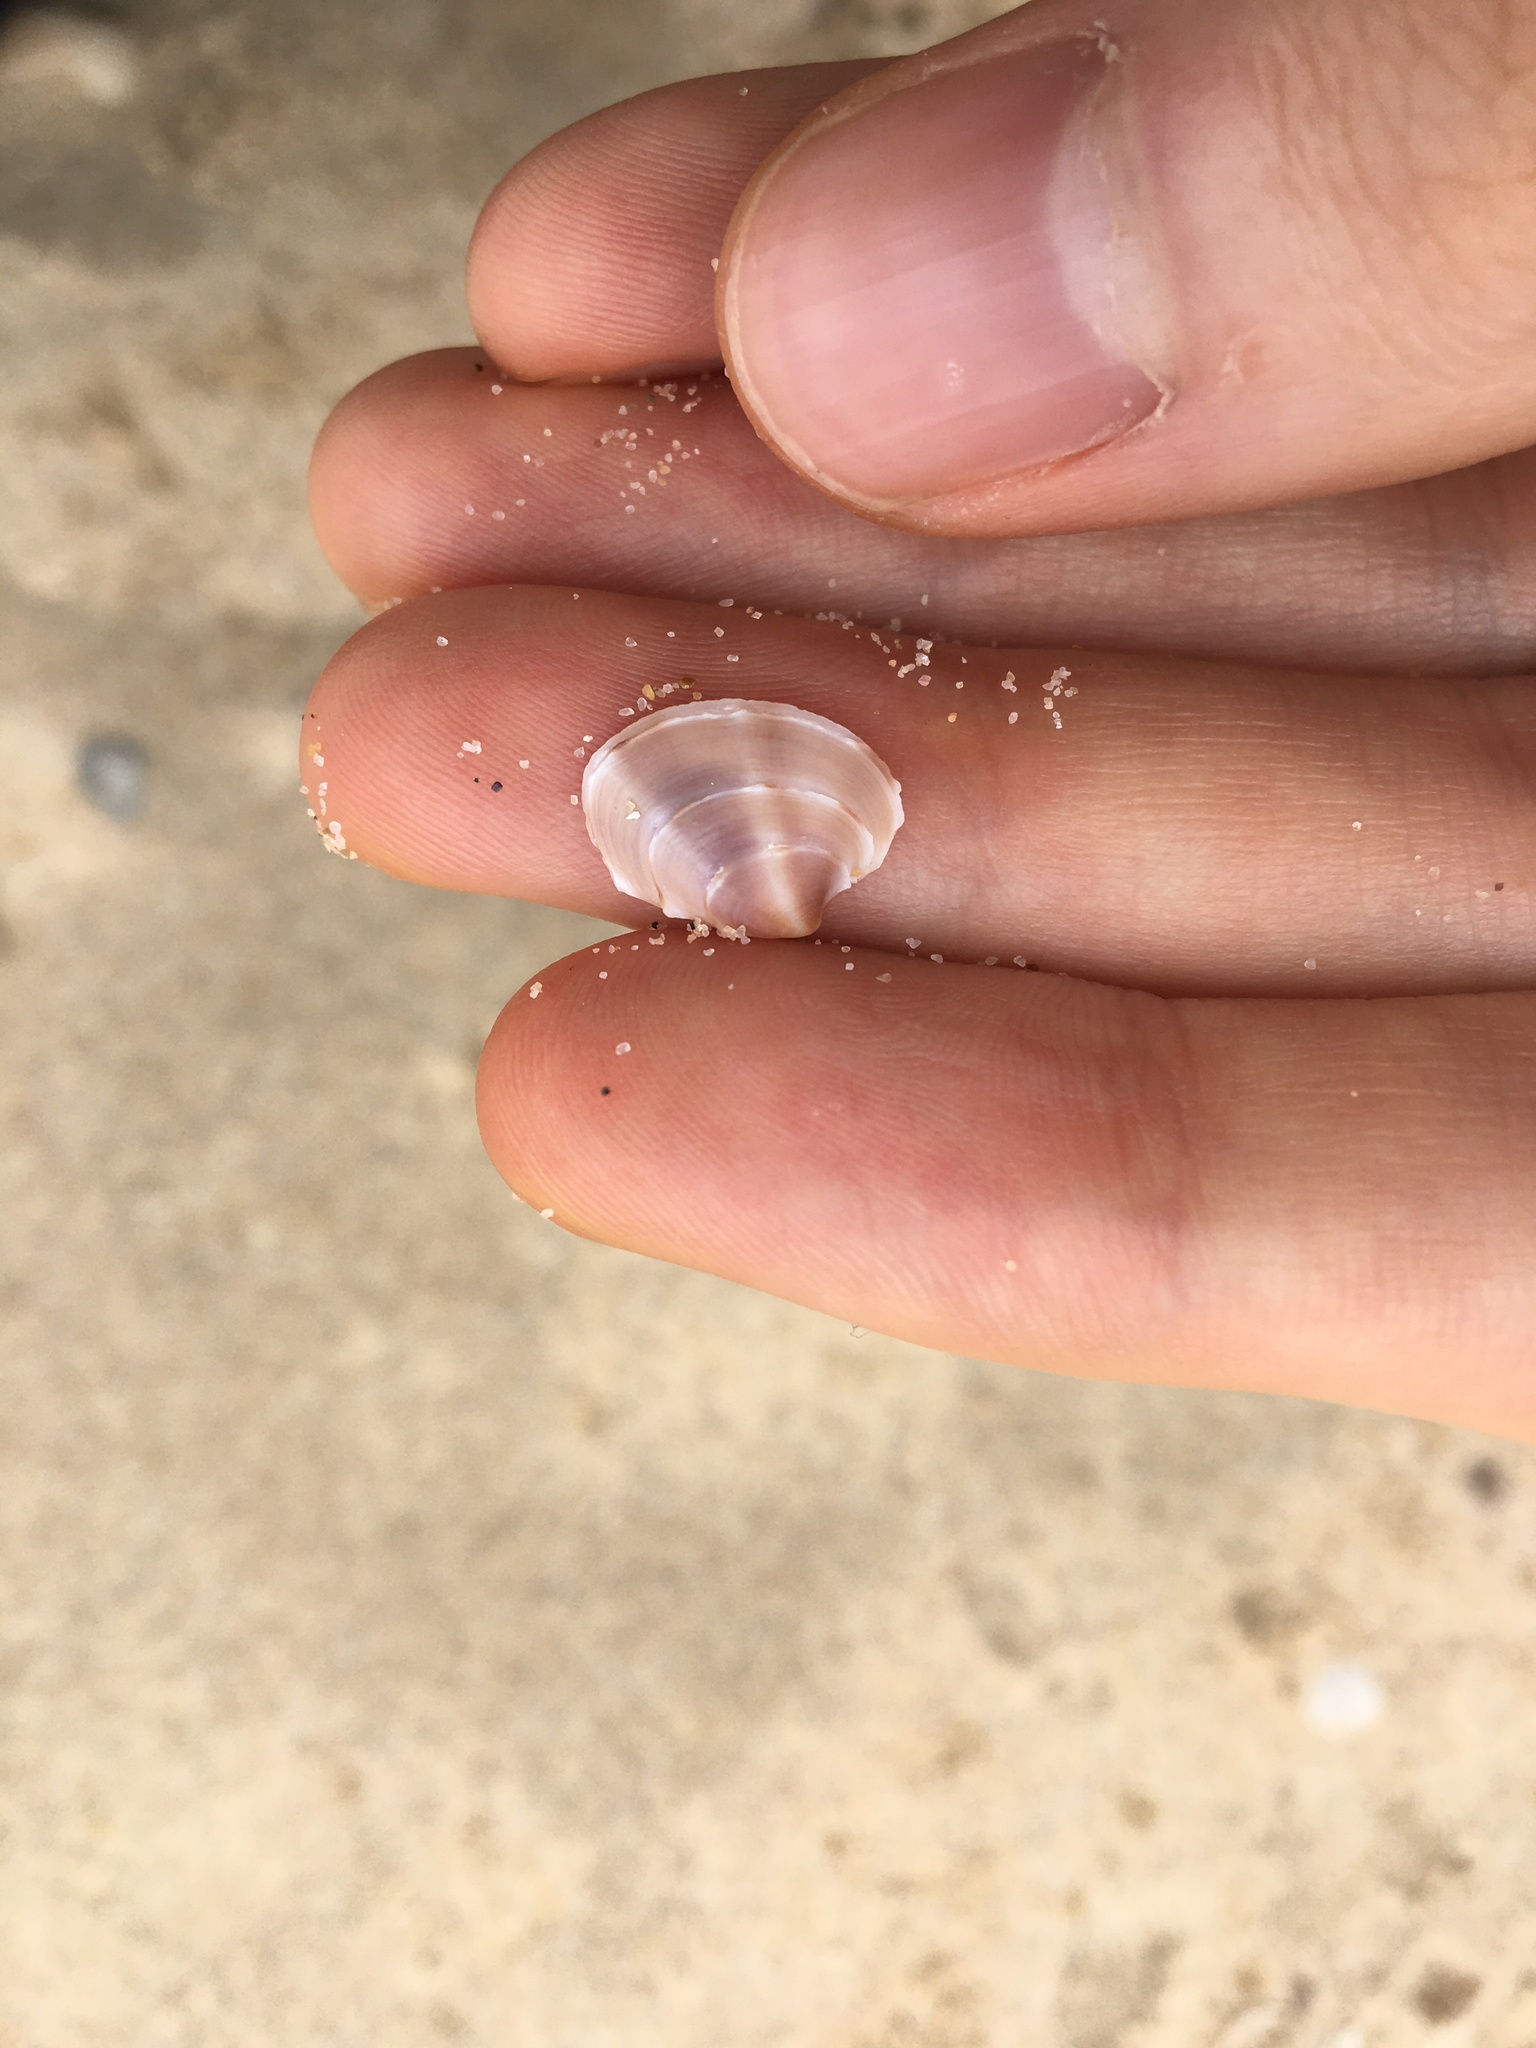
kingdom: Animalia
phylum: Mollusca
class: Bivalvia
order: Venerida
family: Veneridae
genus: Bassina
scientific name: Bassina jacksonii
